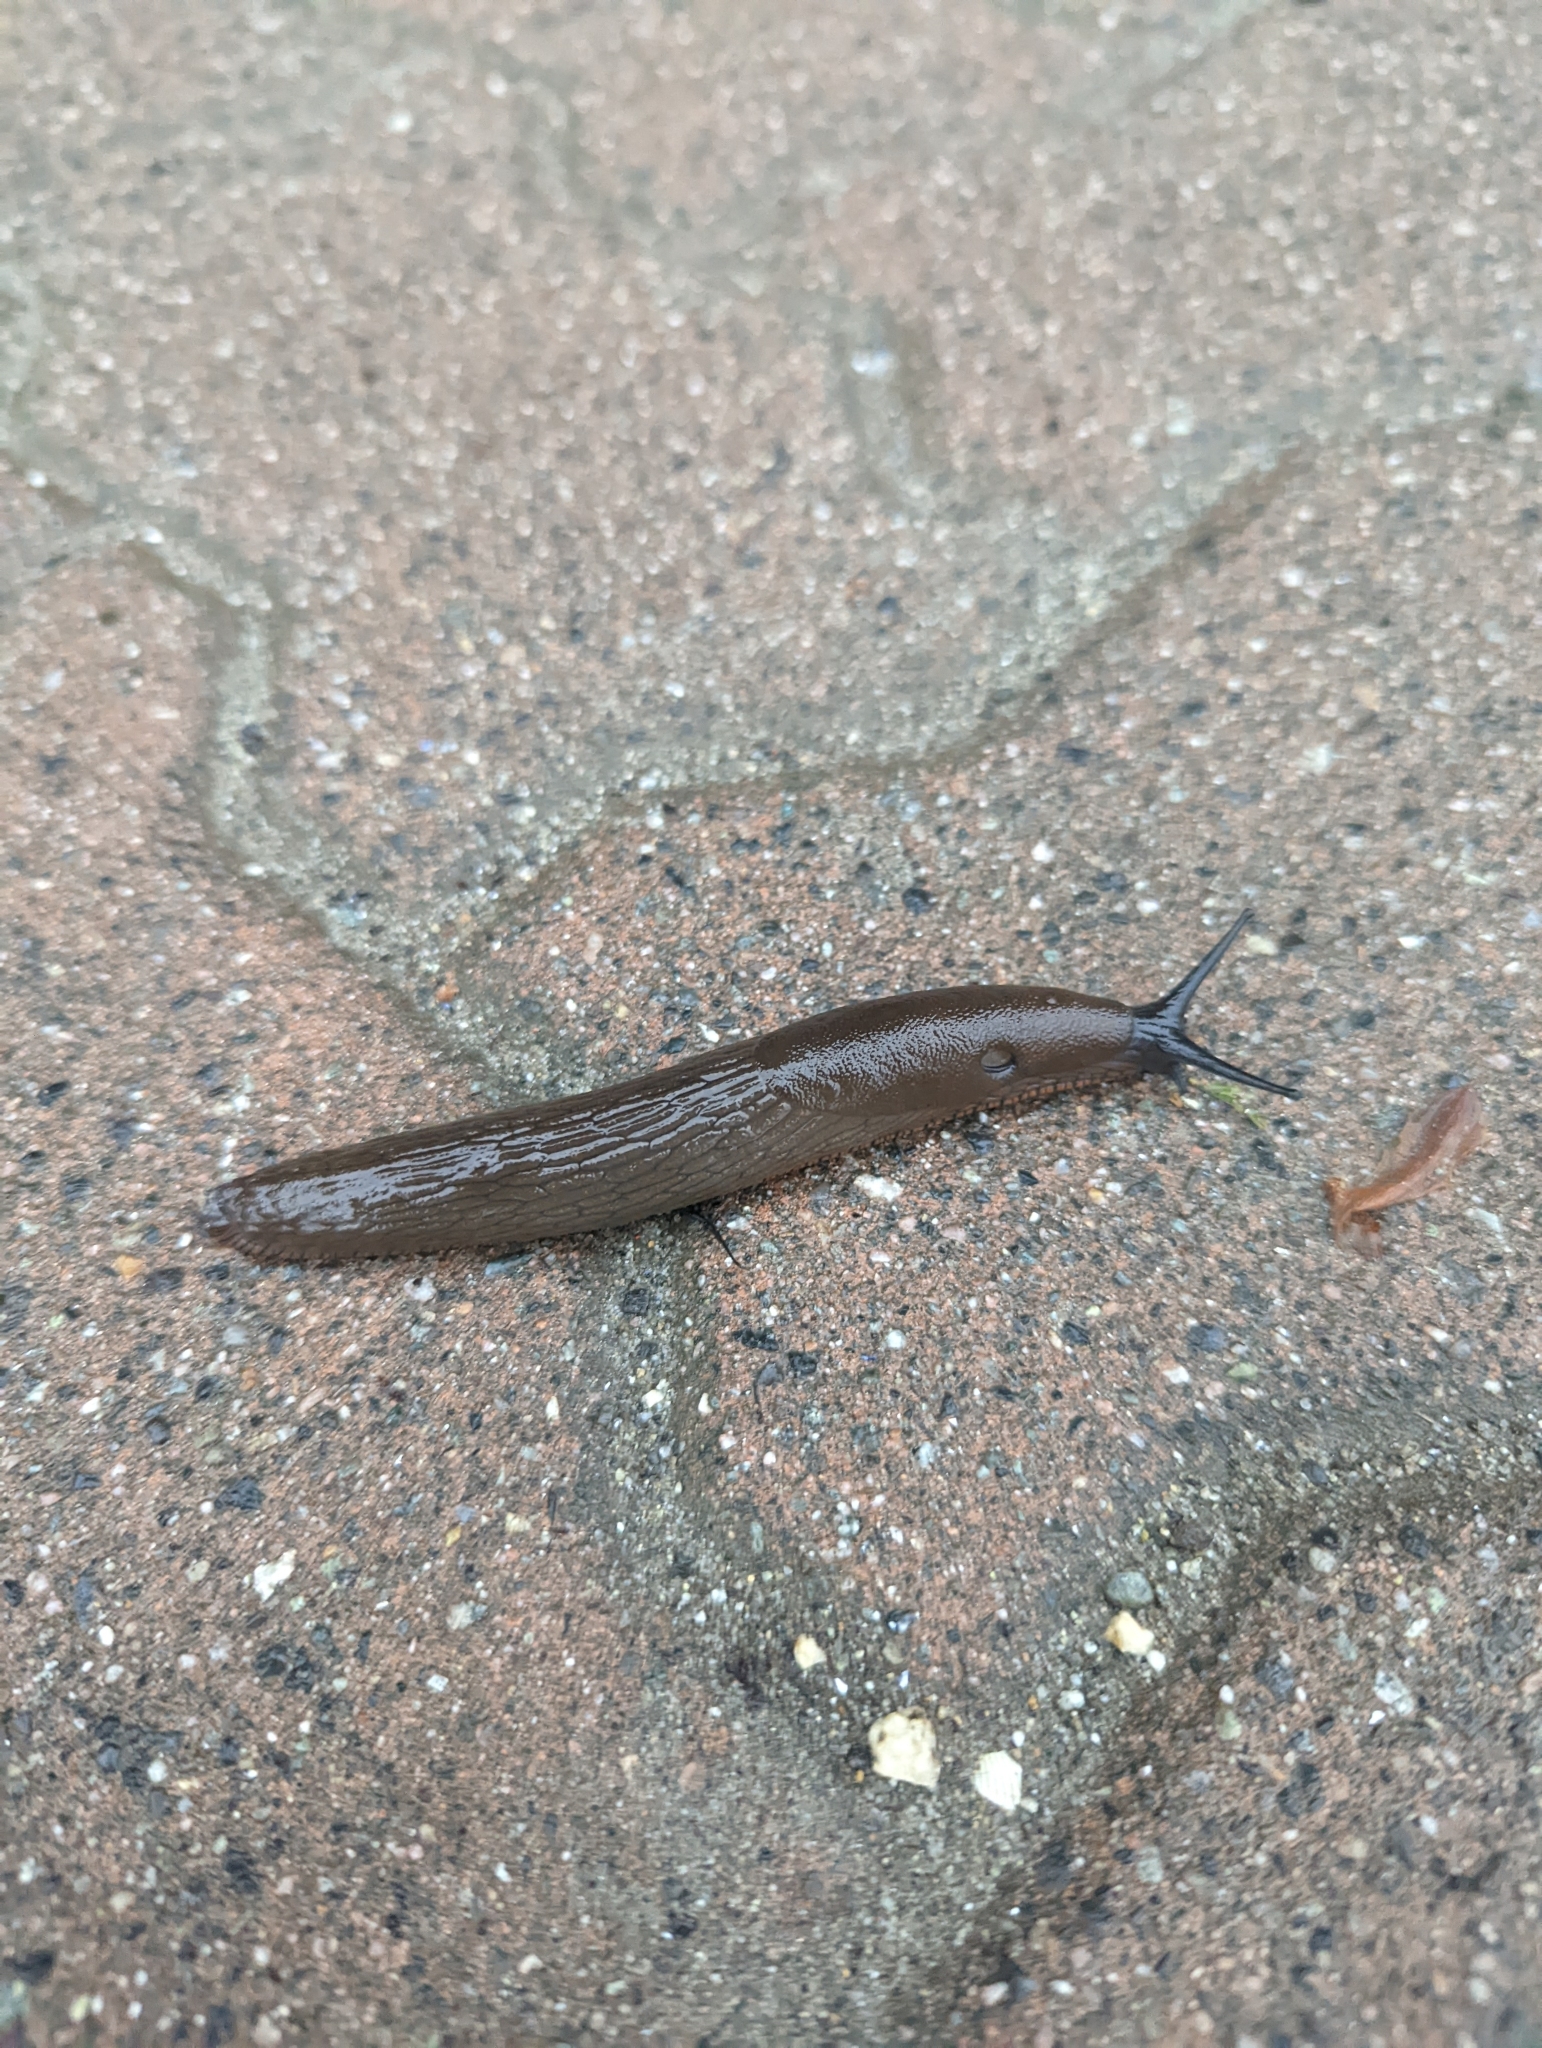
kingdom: Animalia
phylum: Mollusca
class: Gastropoda
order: Stylommatophora
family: Arionidae
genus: Arion
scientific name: Arion
